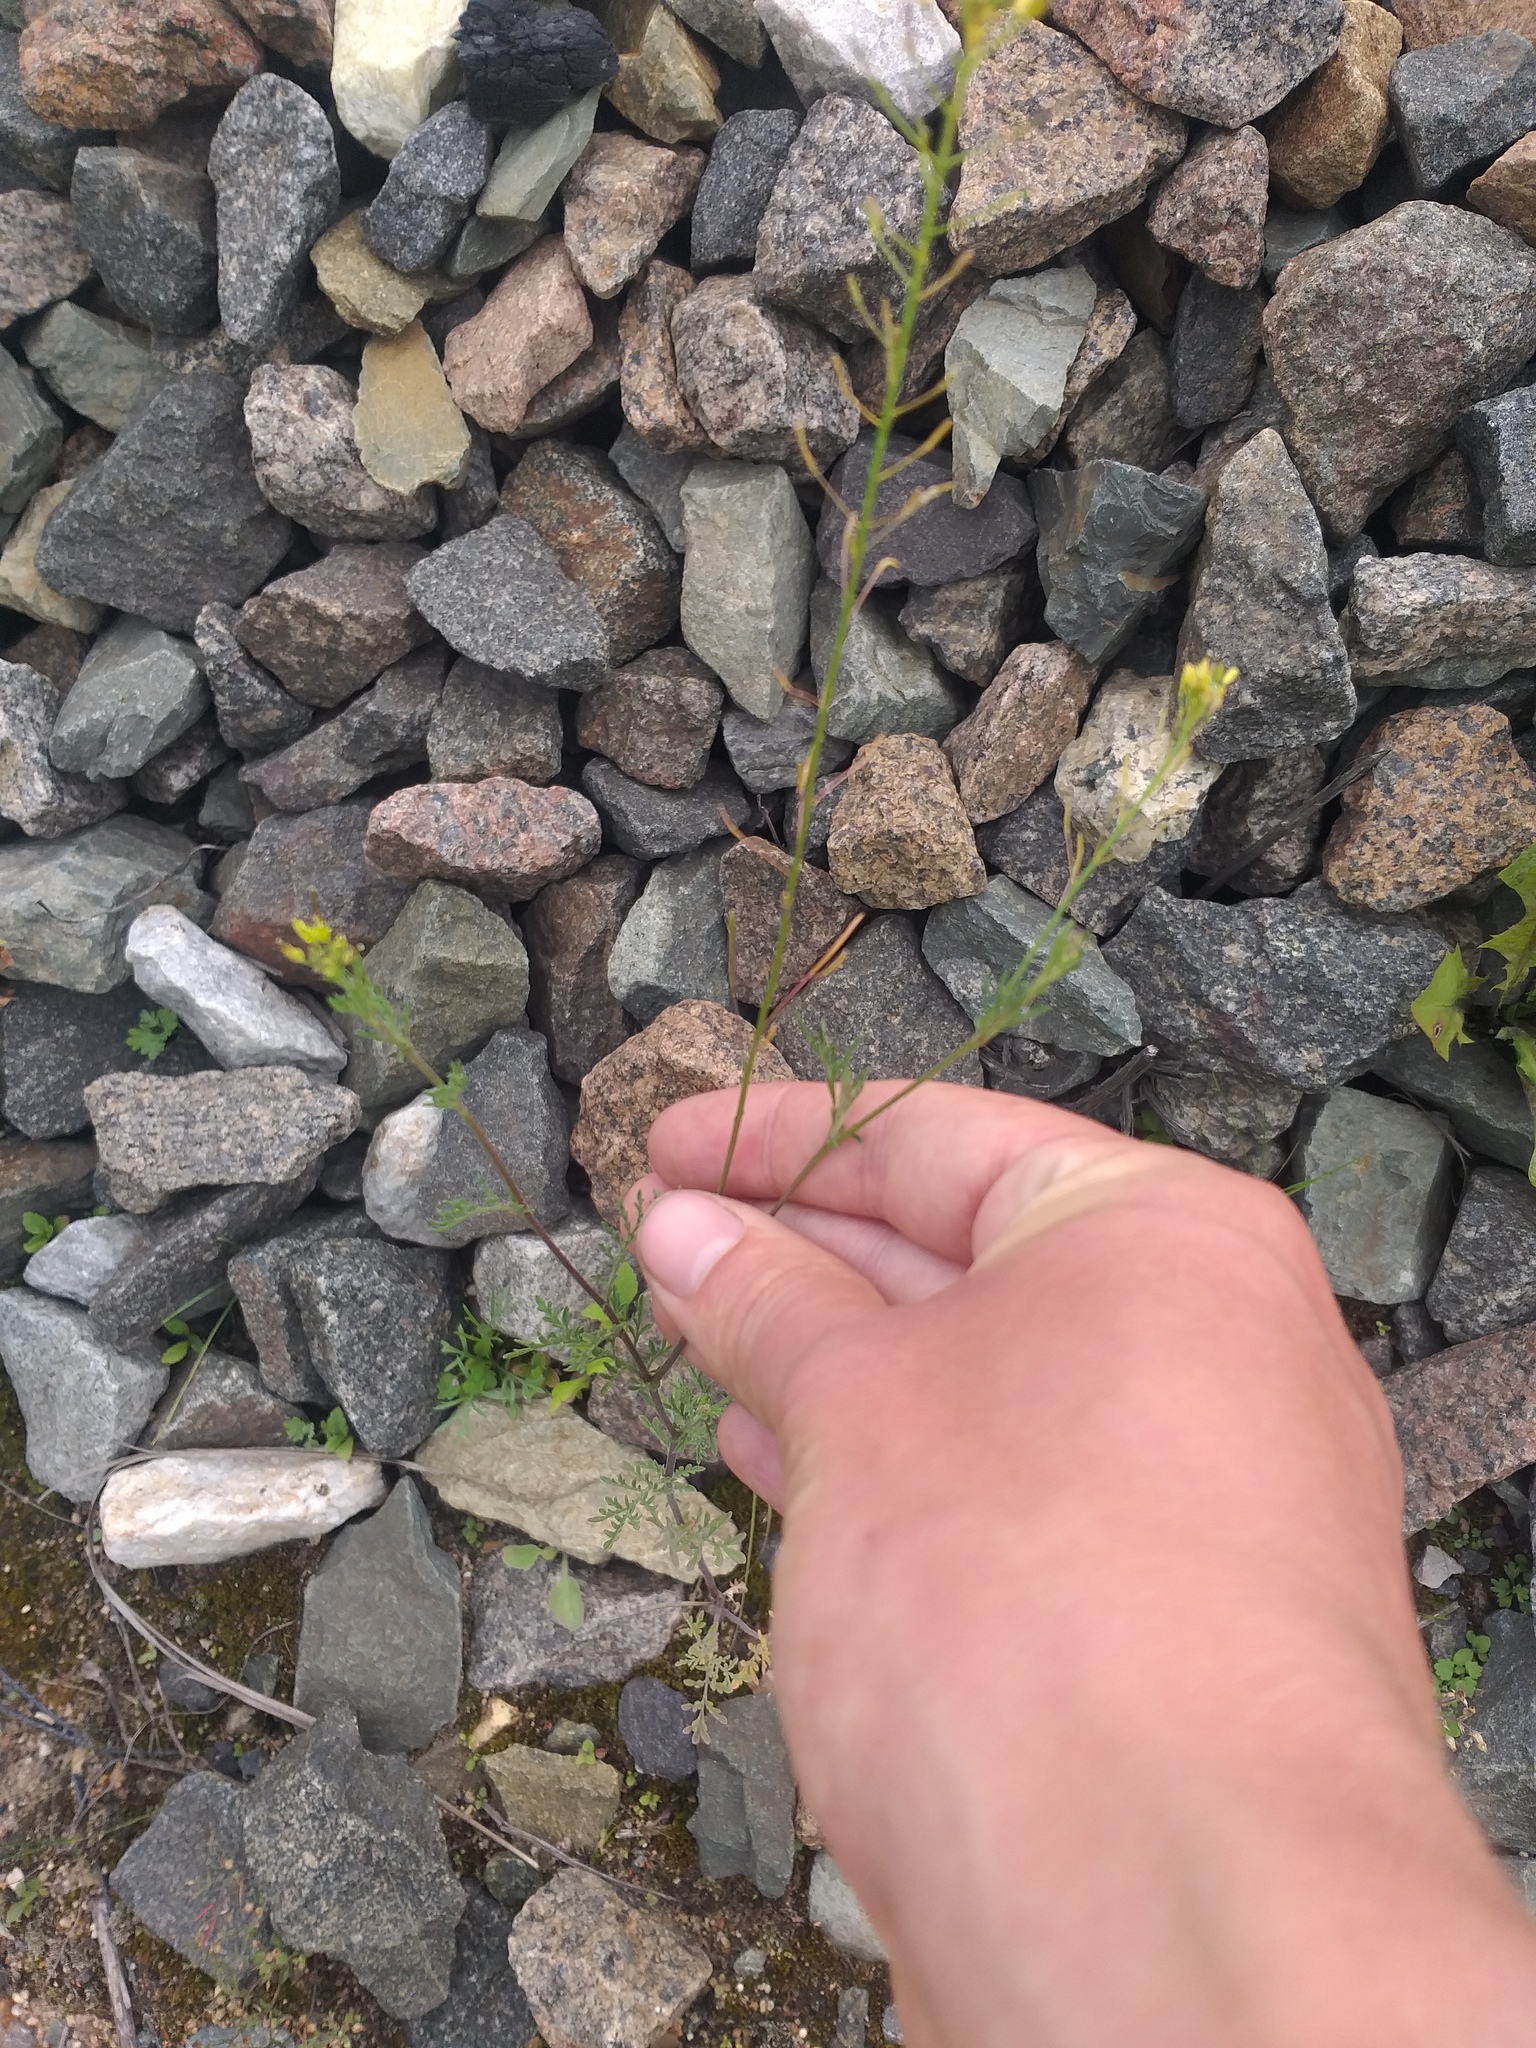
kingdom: Plantae
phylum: Tracheophyta
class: Magnoliopsida
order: Brassicales
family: Brassicaceae
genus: Descurainia
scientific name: Descurainia sophia
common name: Flixweed
